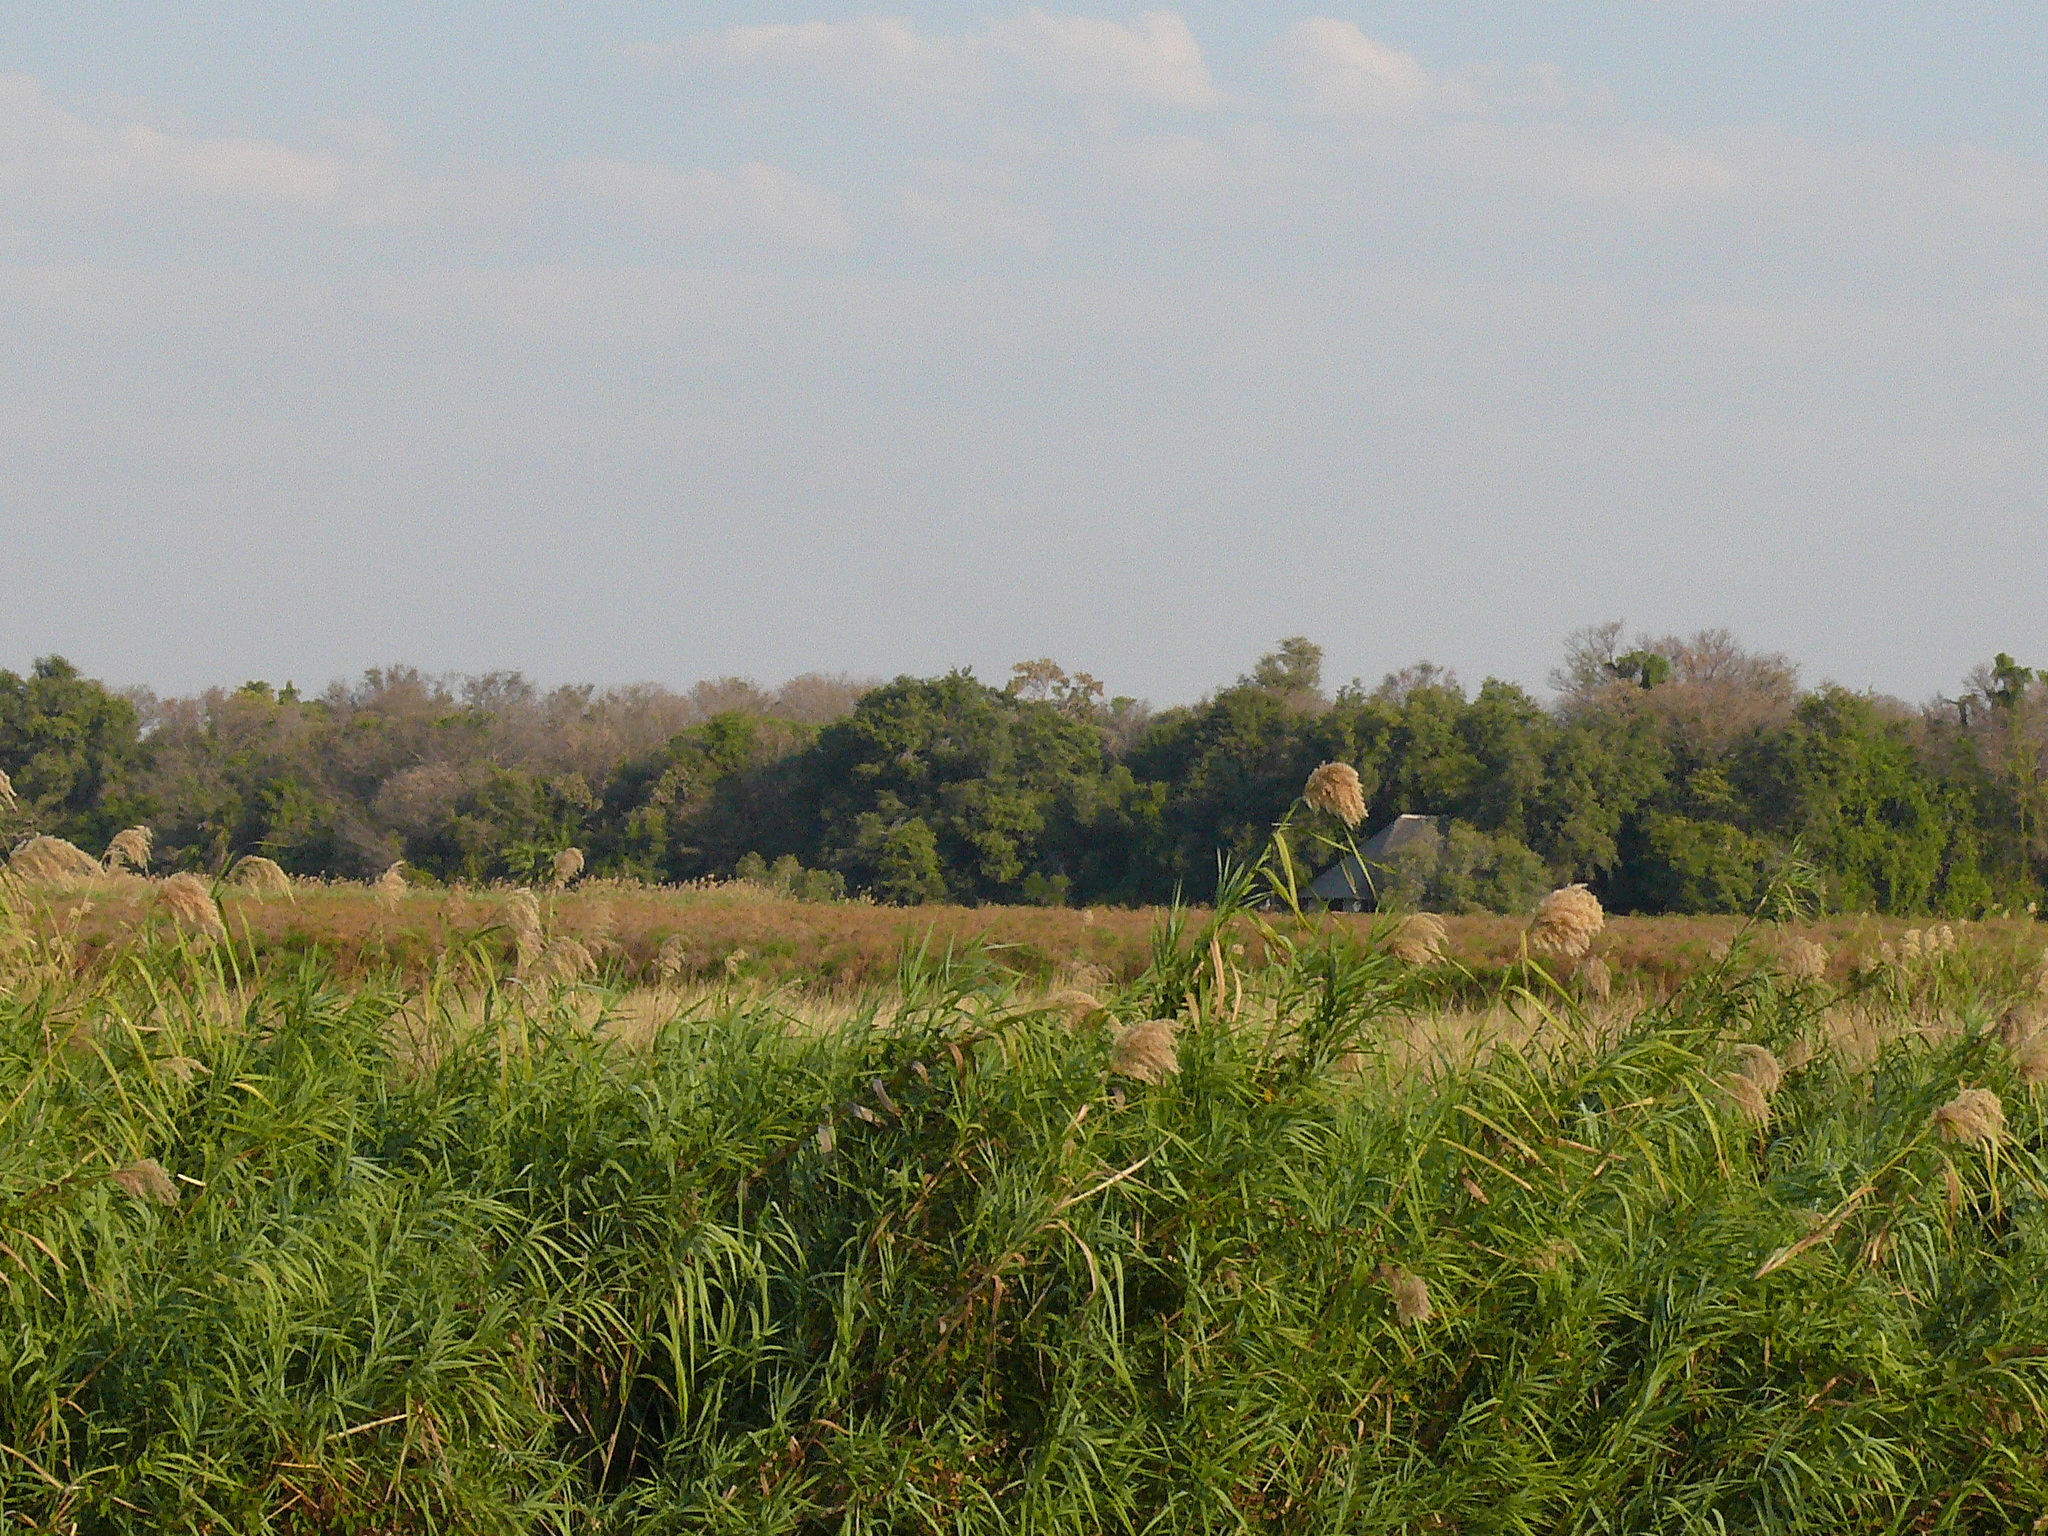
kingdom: Plantae
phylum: Tracheophyta
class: Liliopsida
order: Poales
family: Poaceae
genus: Phragmites
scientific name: Phragmites australis
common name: Common reed
